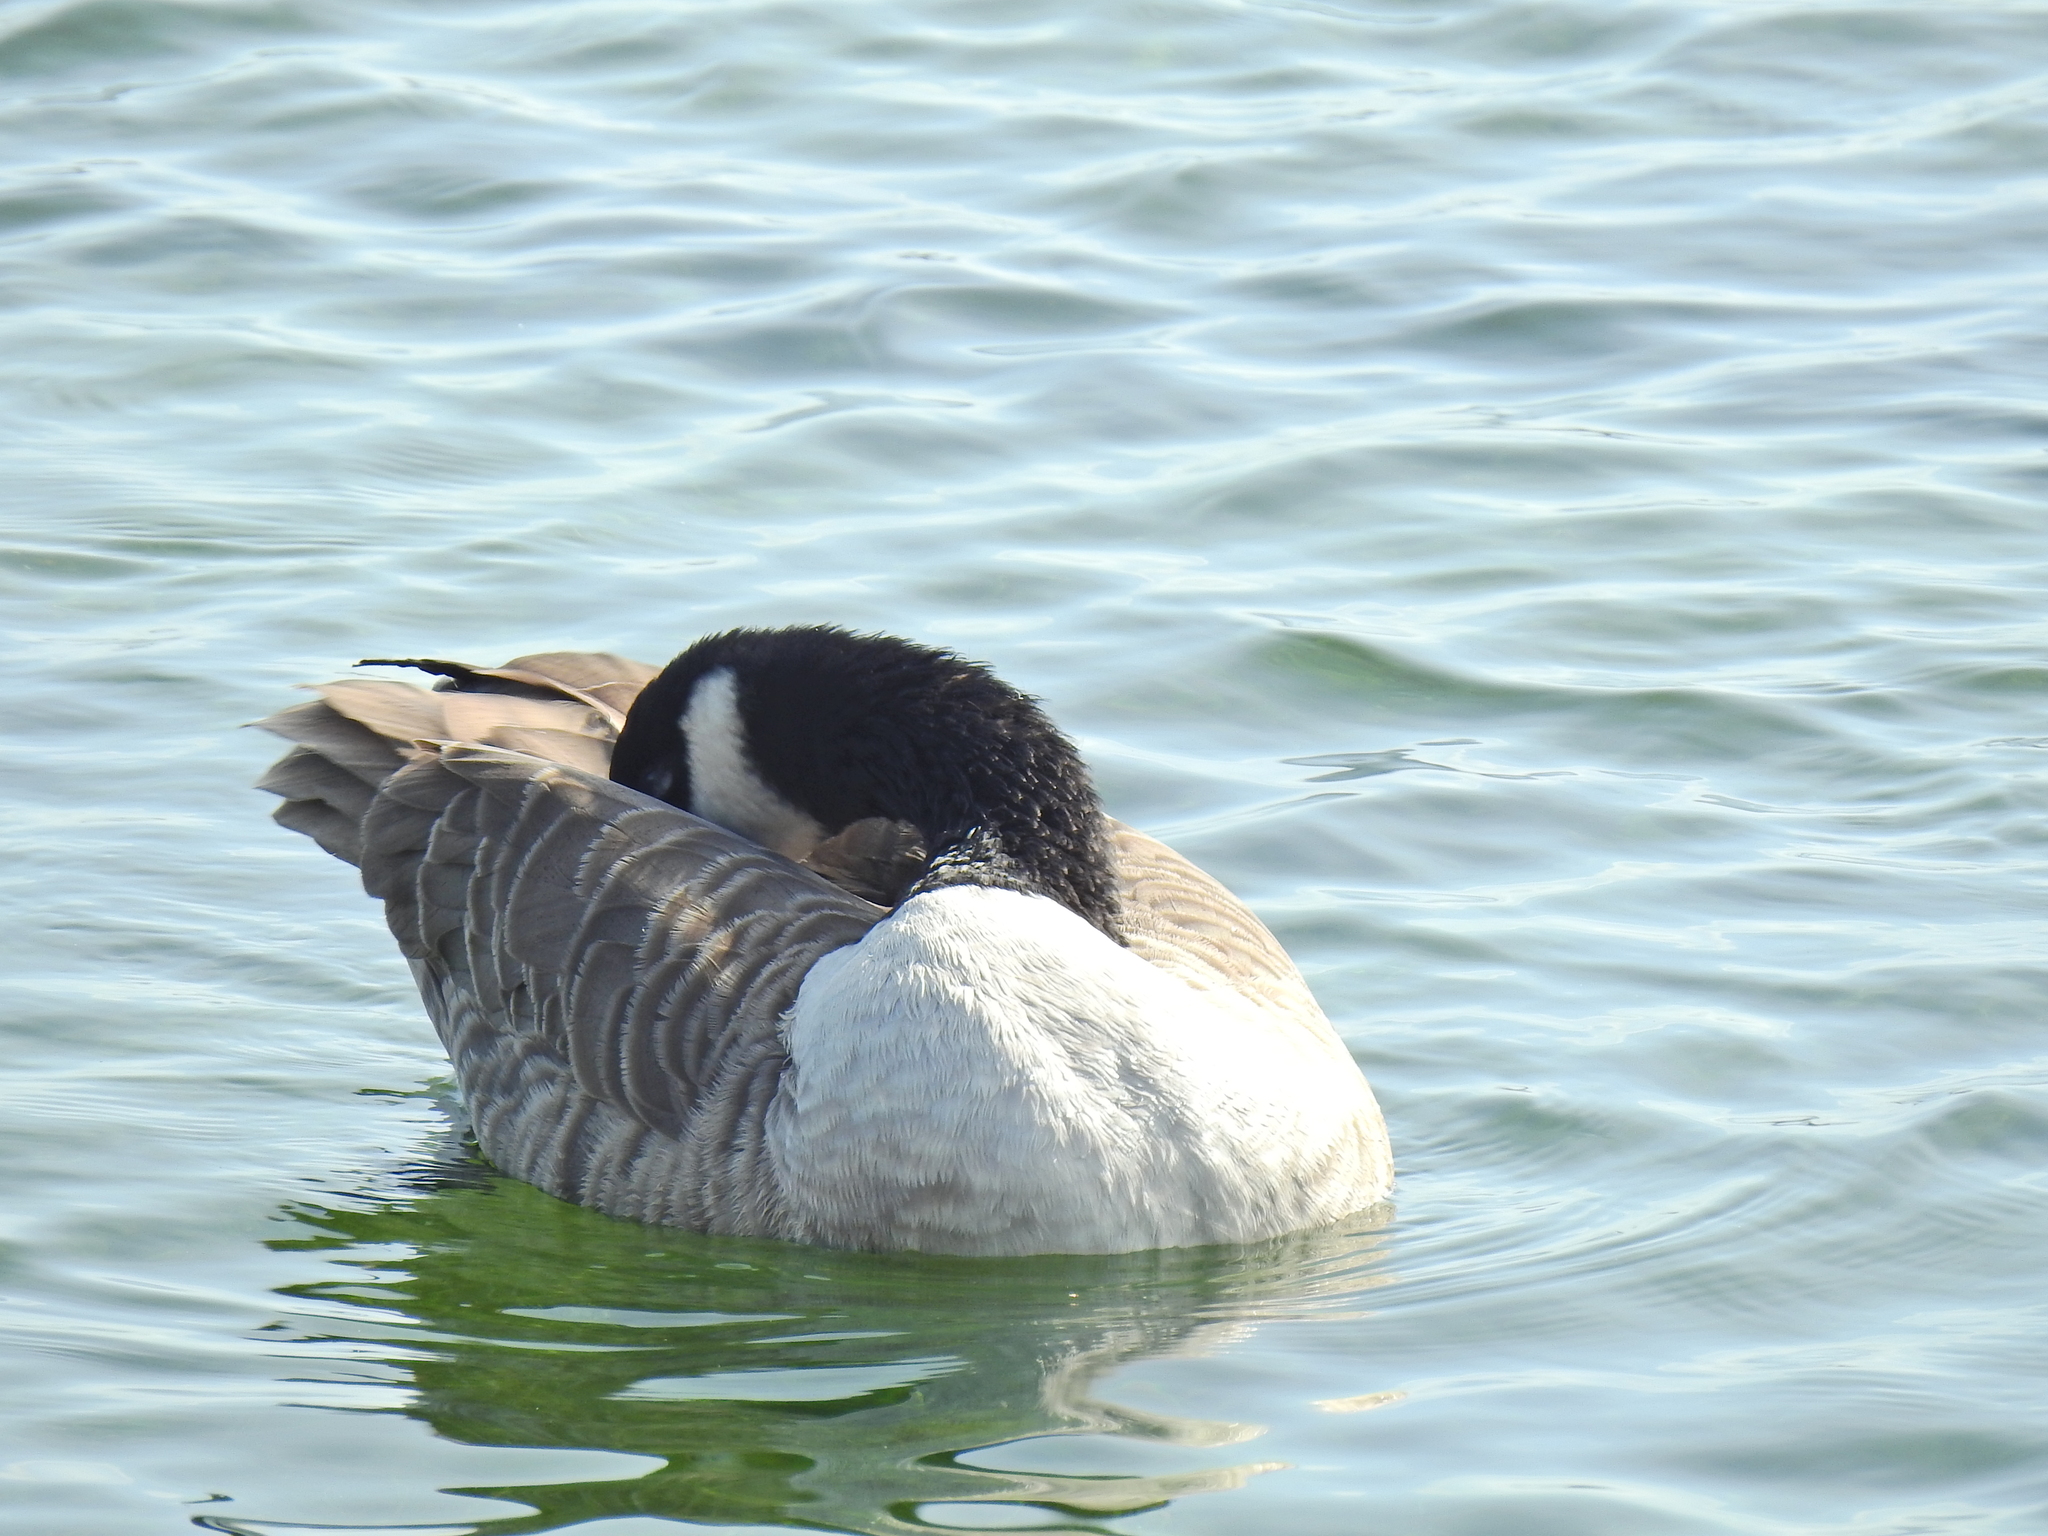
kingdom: Animalia
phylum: Chordata
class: Aves
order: Anseriformes
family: Anatidae
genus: Branta
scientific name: Branta canadensis
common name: Canada goose
